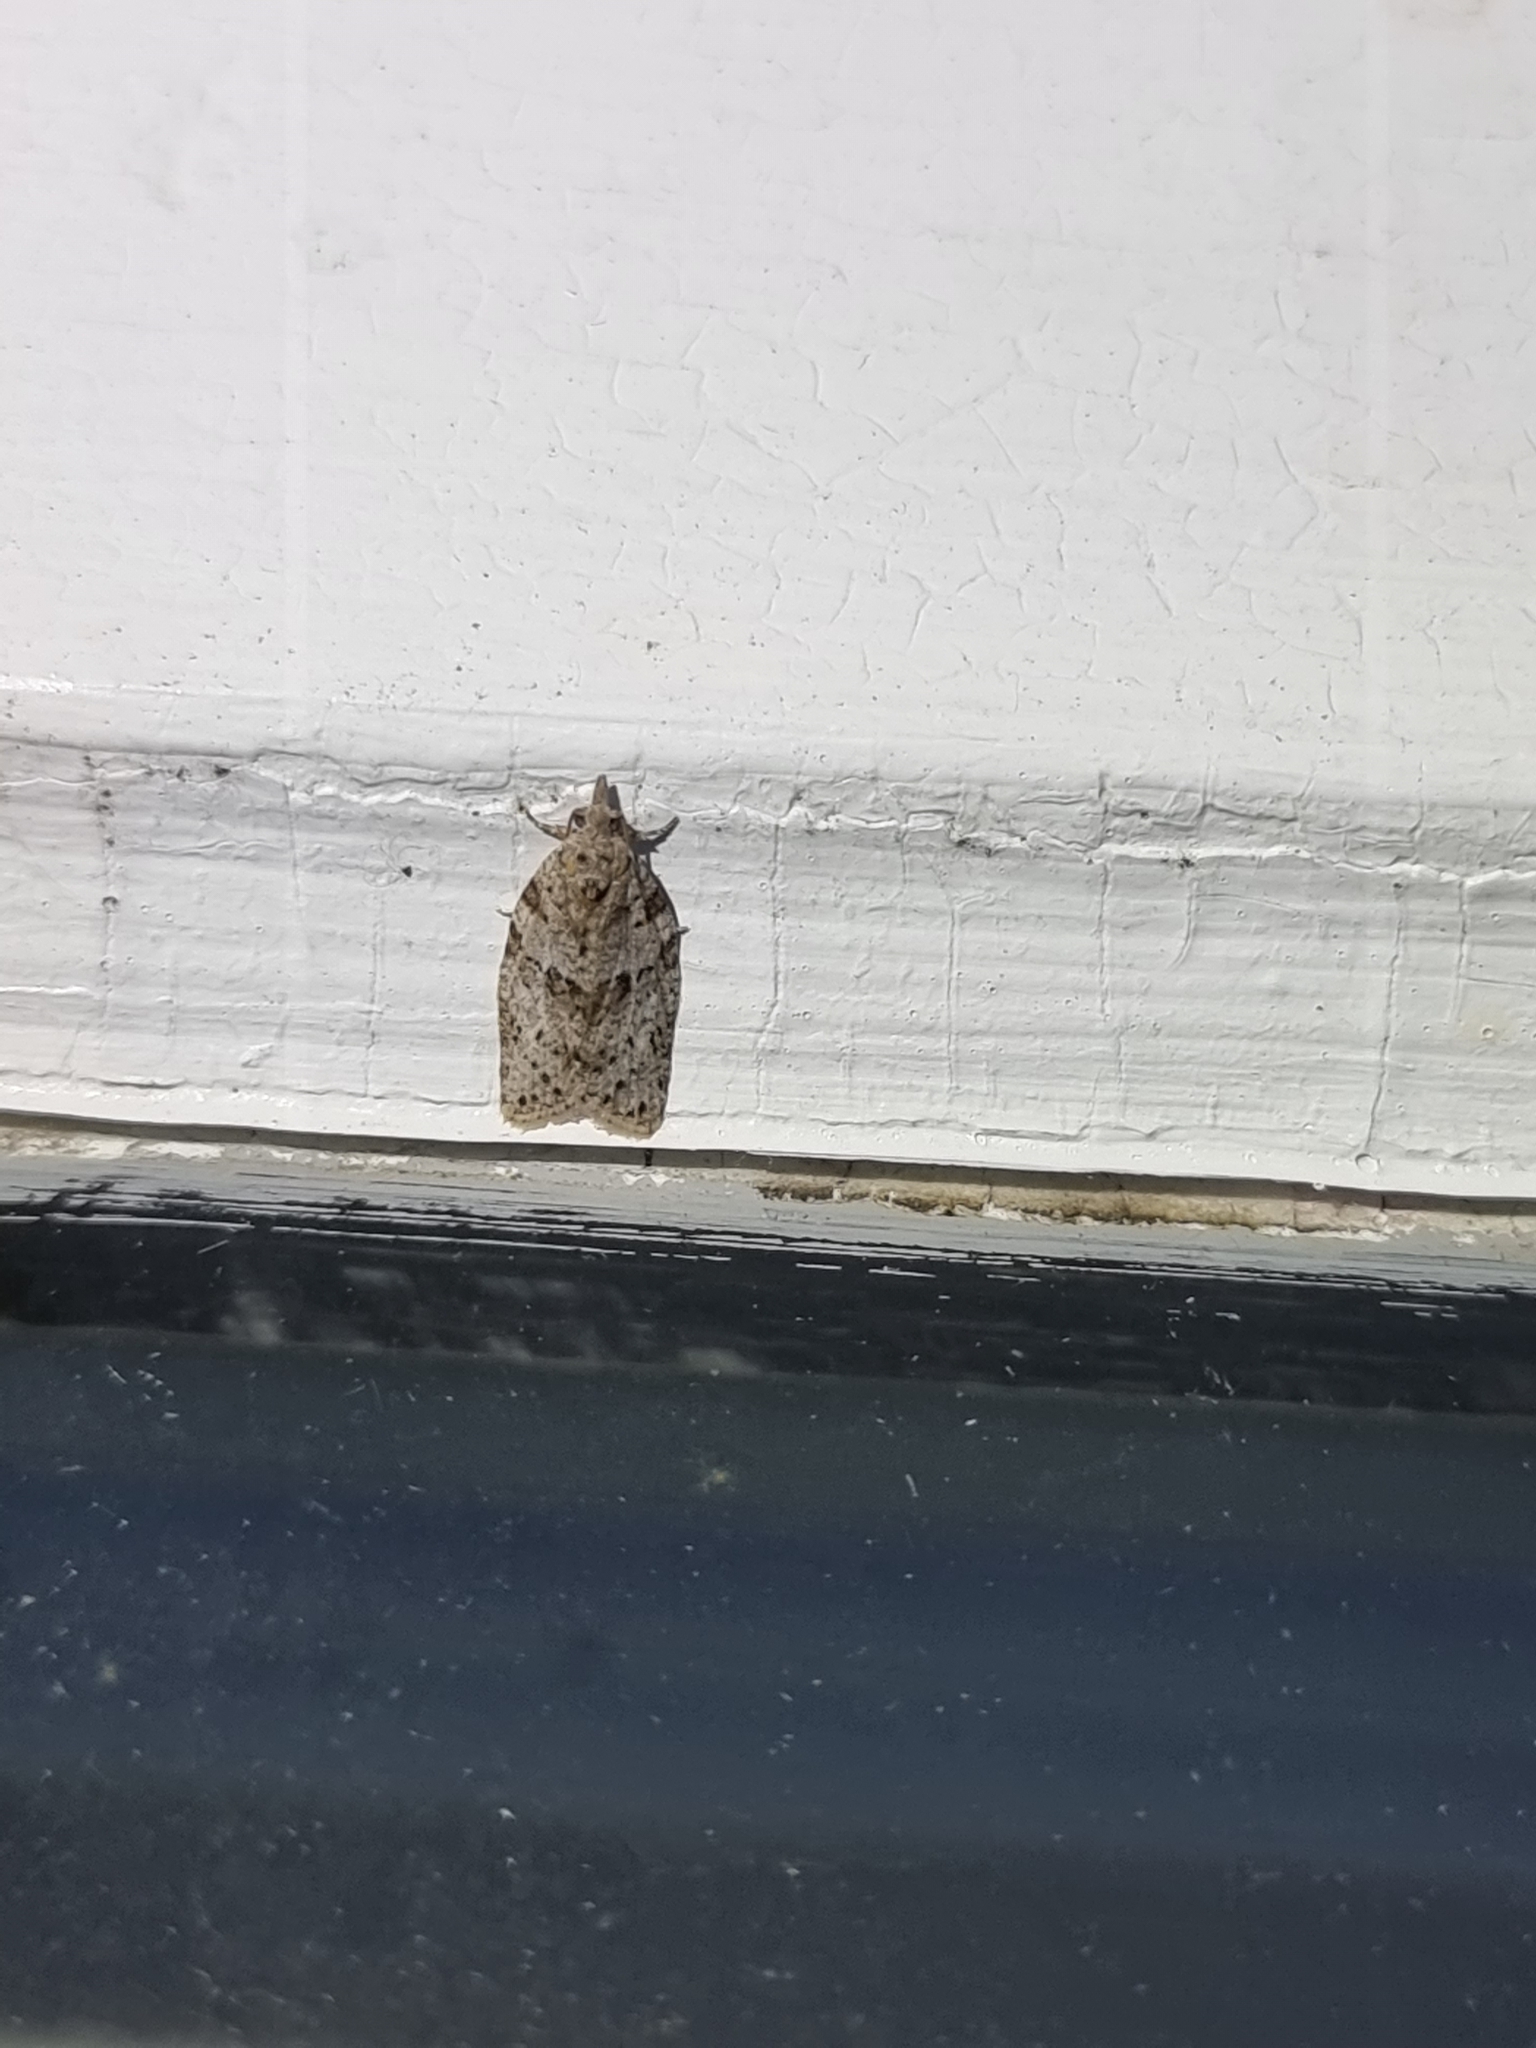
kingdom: Animalia
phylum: Arthropoda
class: Insecta
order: Lepidoptera
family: Tortricidae
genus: Isotenes
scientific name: Isotenes miserana
